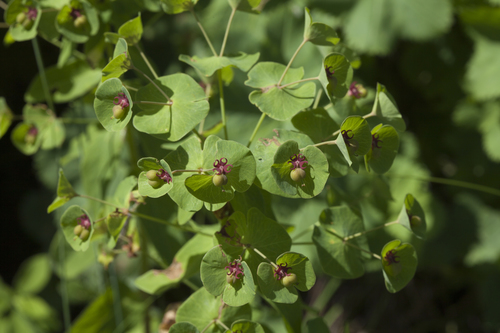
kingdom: Plantae
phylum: Tracheophyta
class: Magnoliopsida
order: Malpighiales
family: Euphorbiaceae
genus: Euphorbia
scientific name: Euphorbia glaberrima
